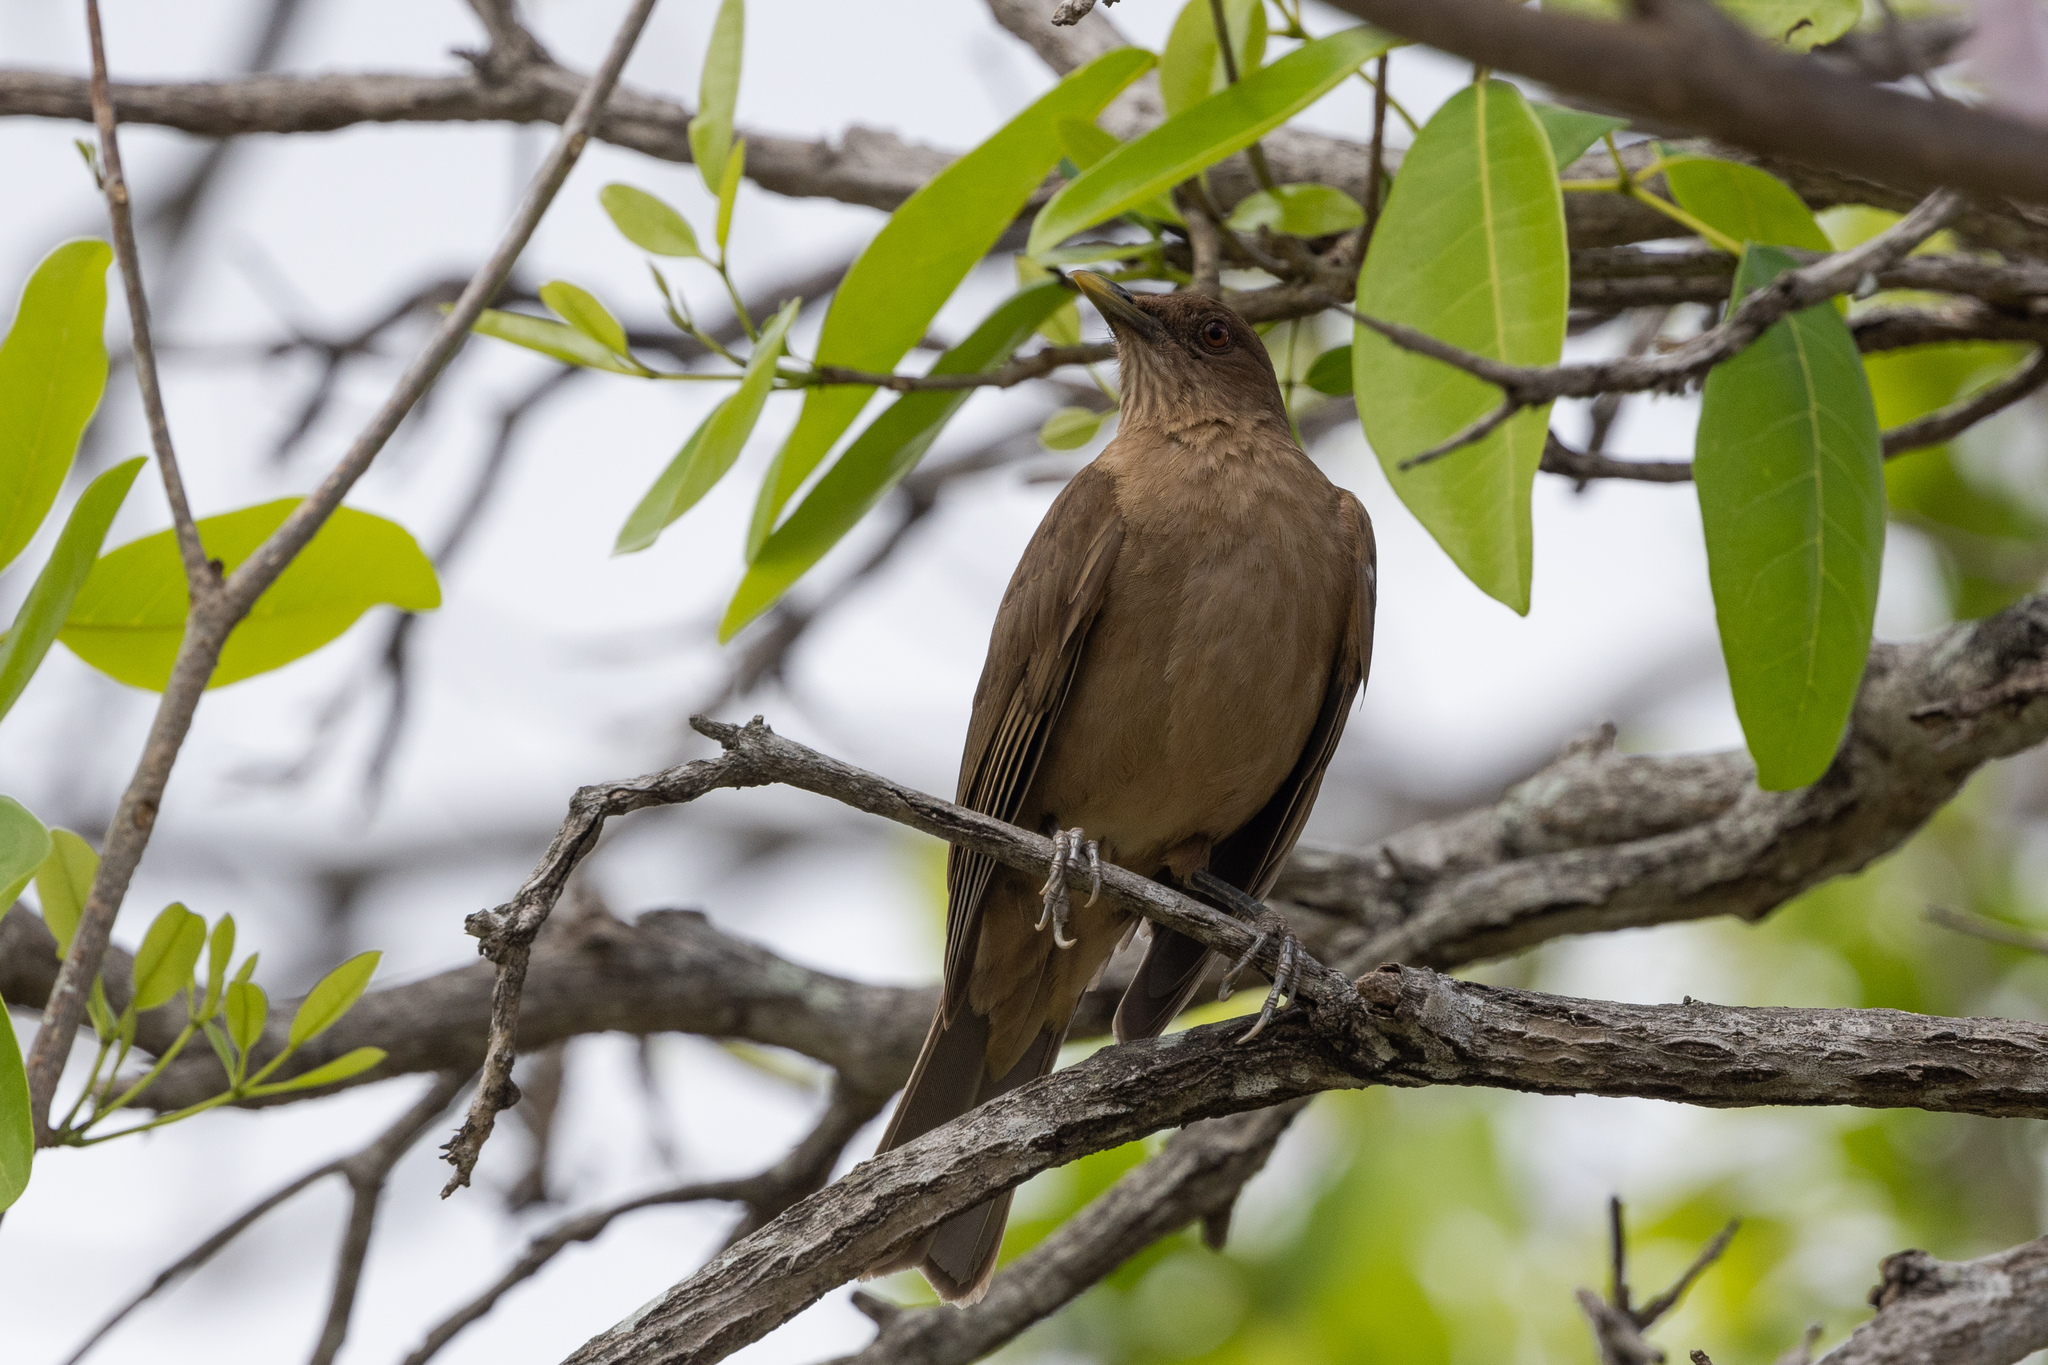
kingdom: Animalia
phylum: Chordata
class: Aves
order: Passeriformes
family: Turdidae
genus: Turdus
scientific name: Turdus grayi
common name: Clay-colored thrush
